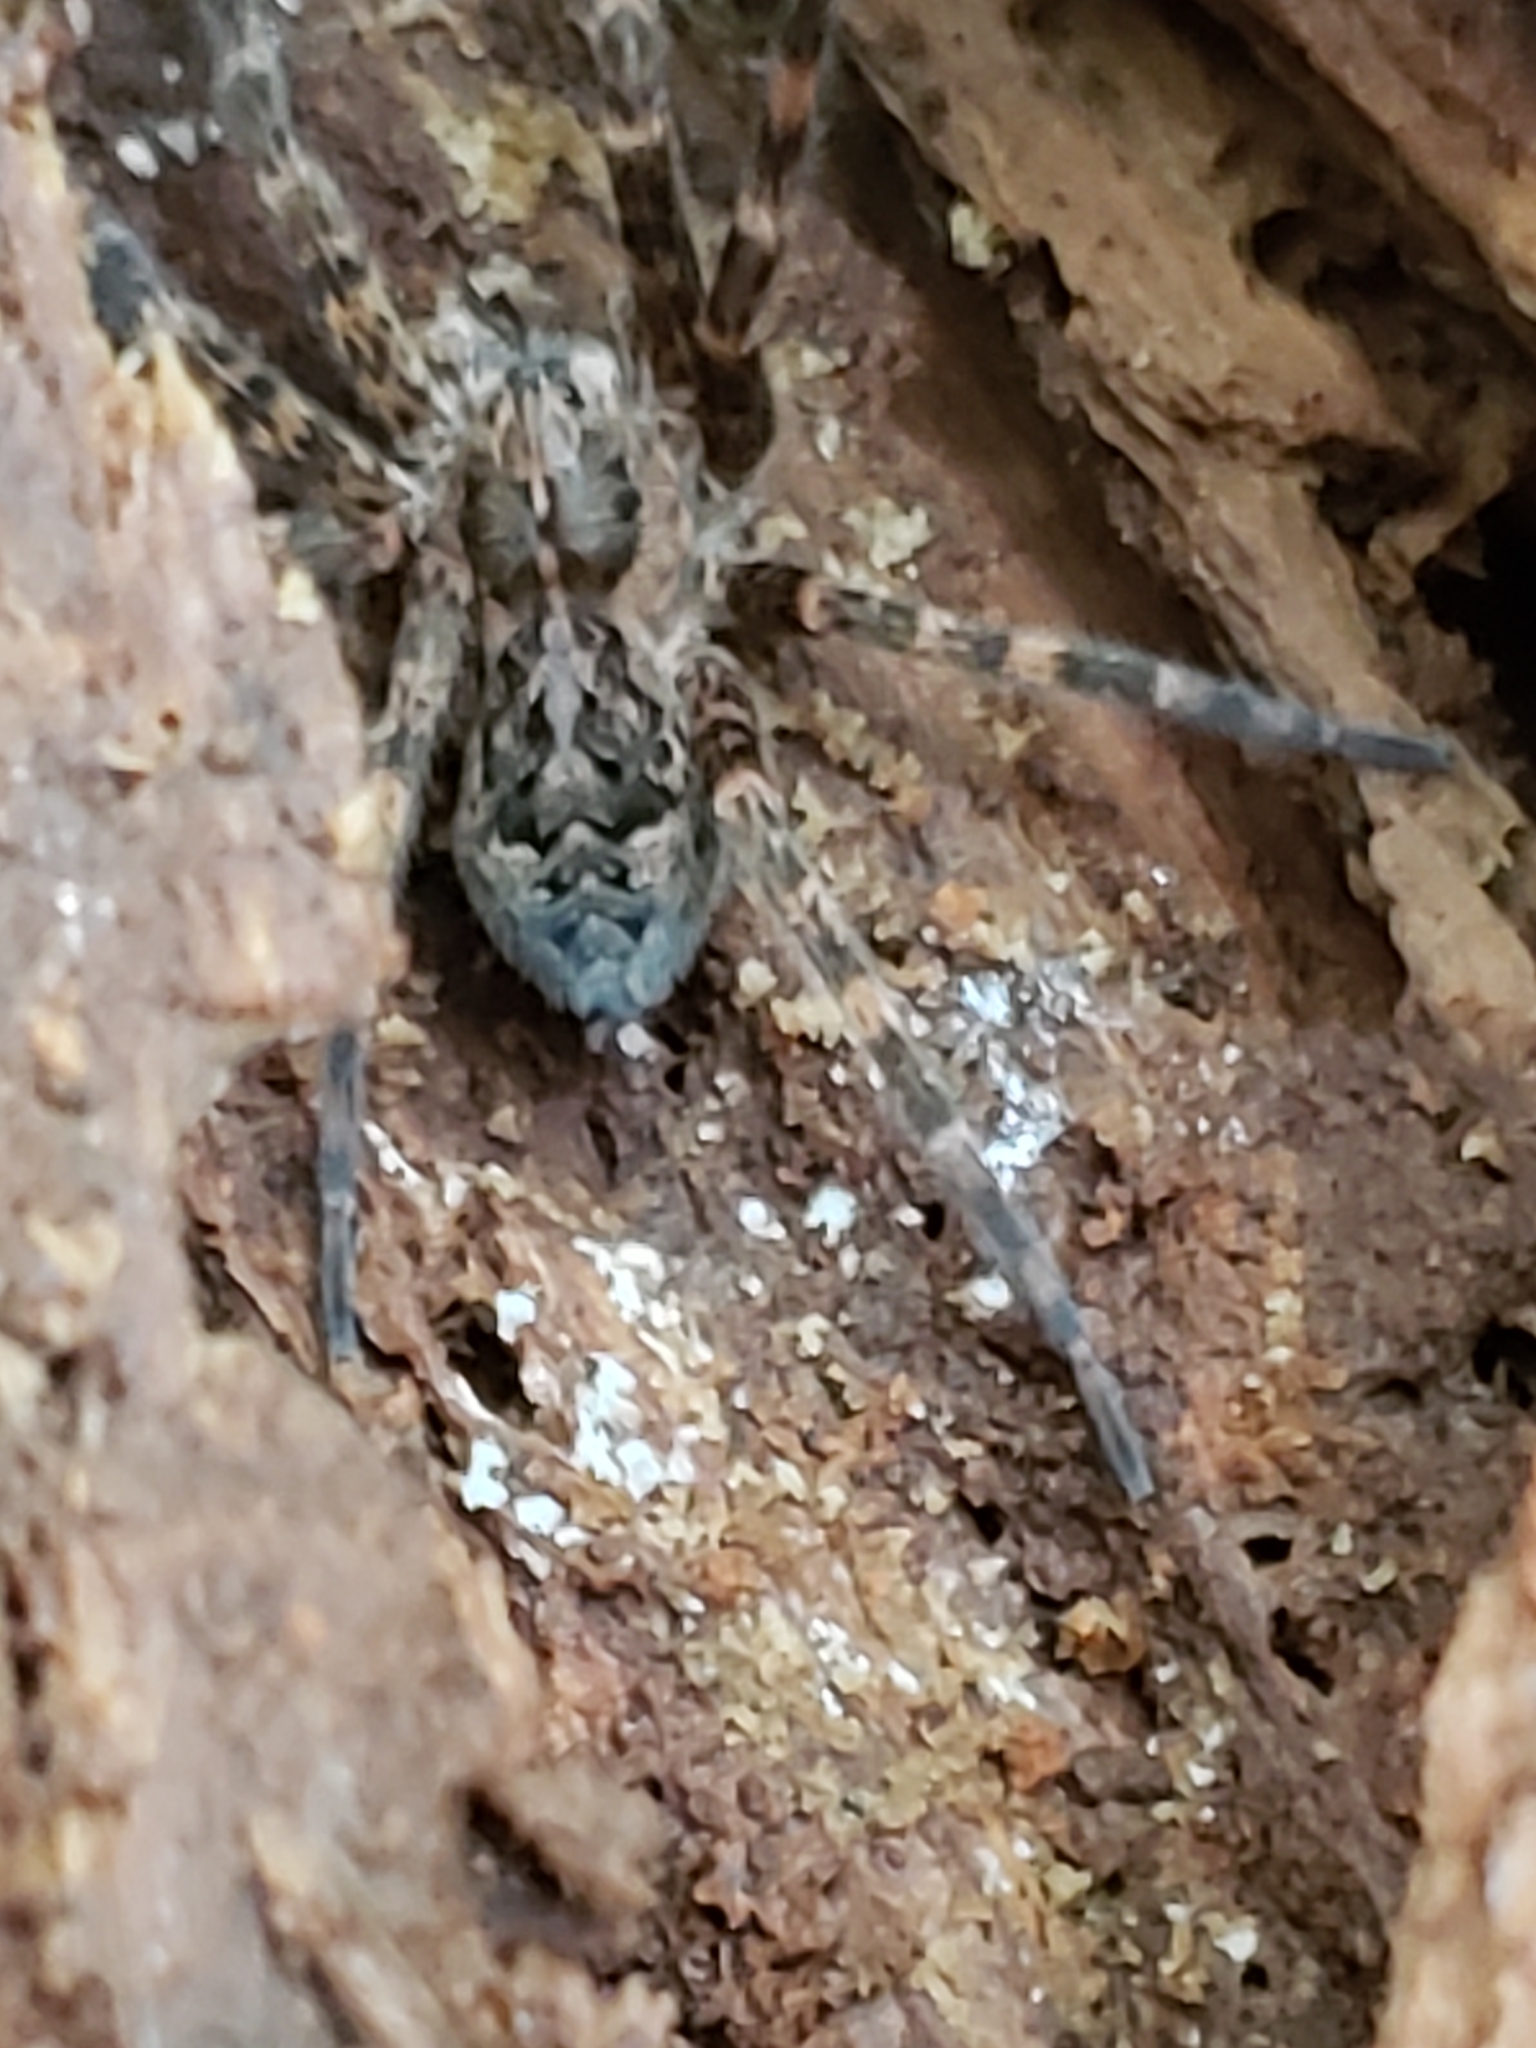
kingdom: Animalia
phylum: Arthropoda
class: Arachnida
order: Araneae
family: Pisauridae
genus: Dolomedes
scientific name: Dolomedes tenebrosus
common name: Dark fishing spider
